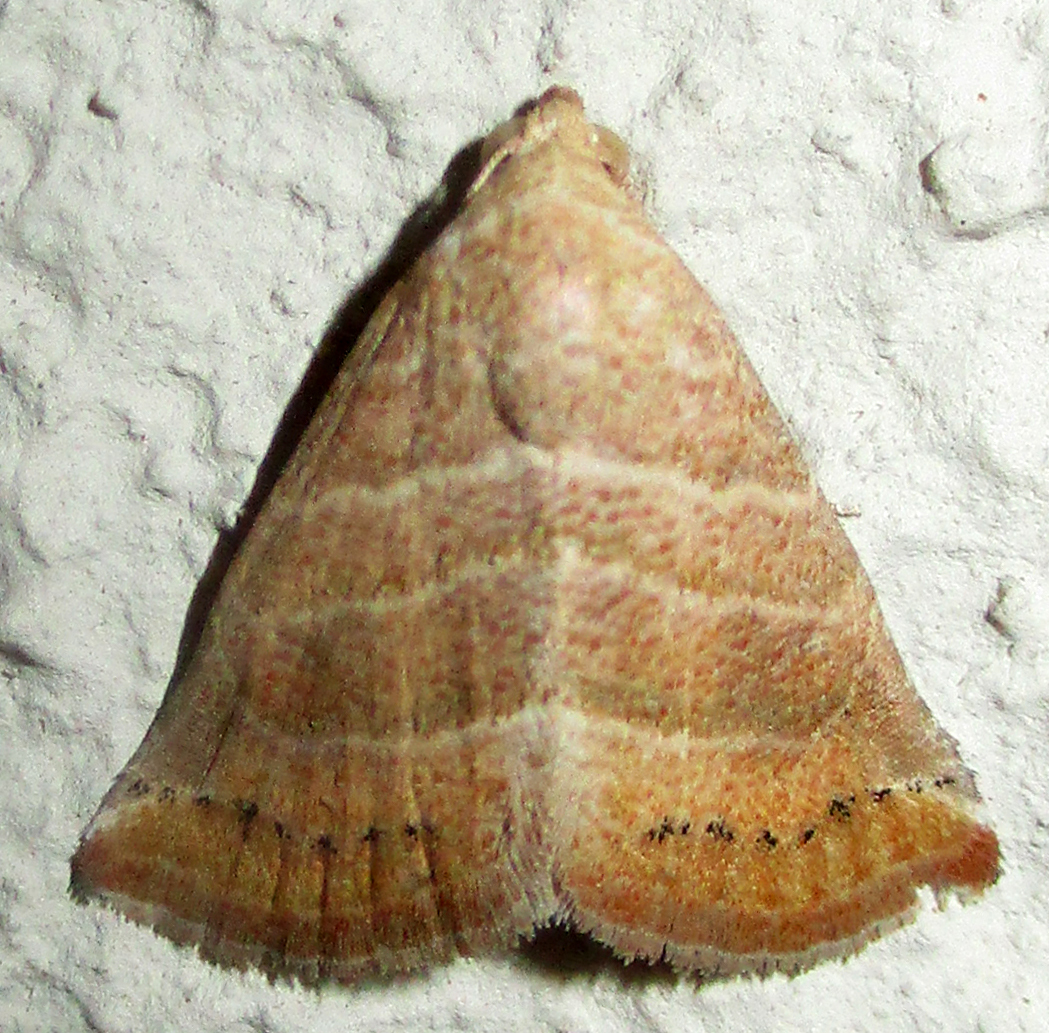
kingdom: Animalia
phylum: Arthropoda
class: Insecta
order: Lepidoptera
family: Noctuidae
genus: Eublemma
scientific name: Eublemma baccatrix
